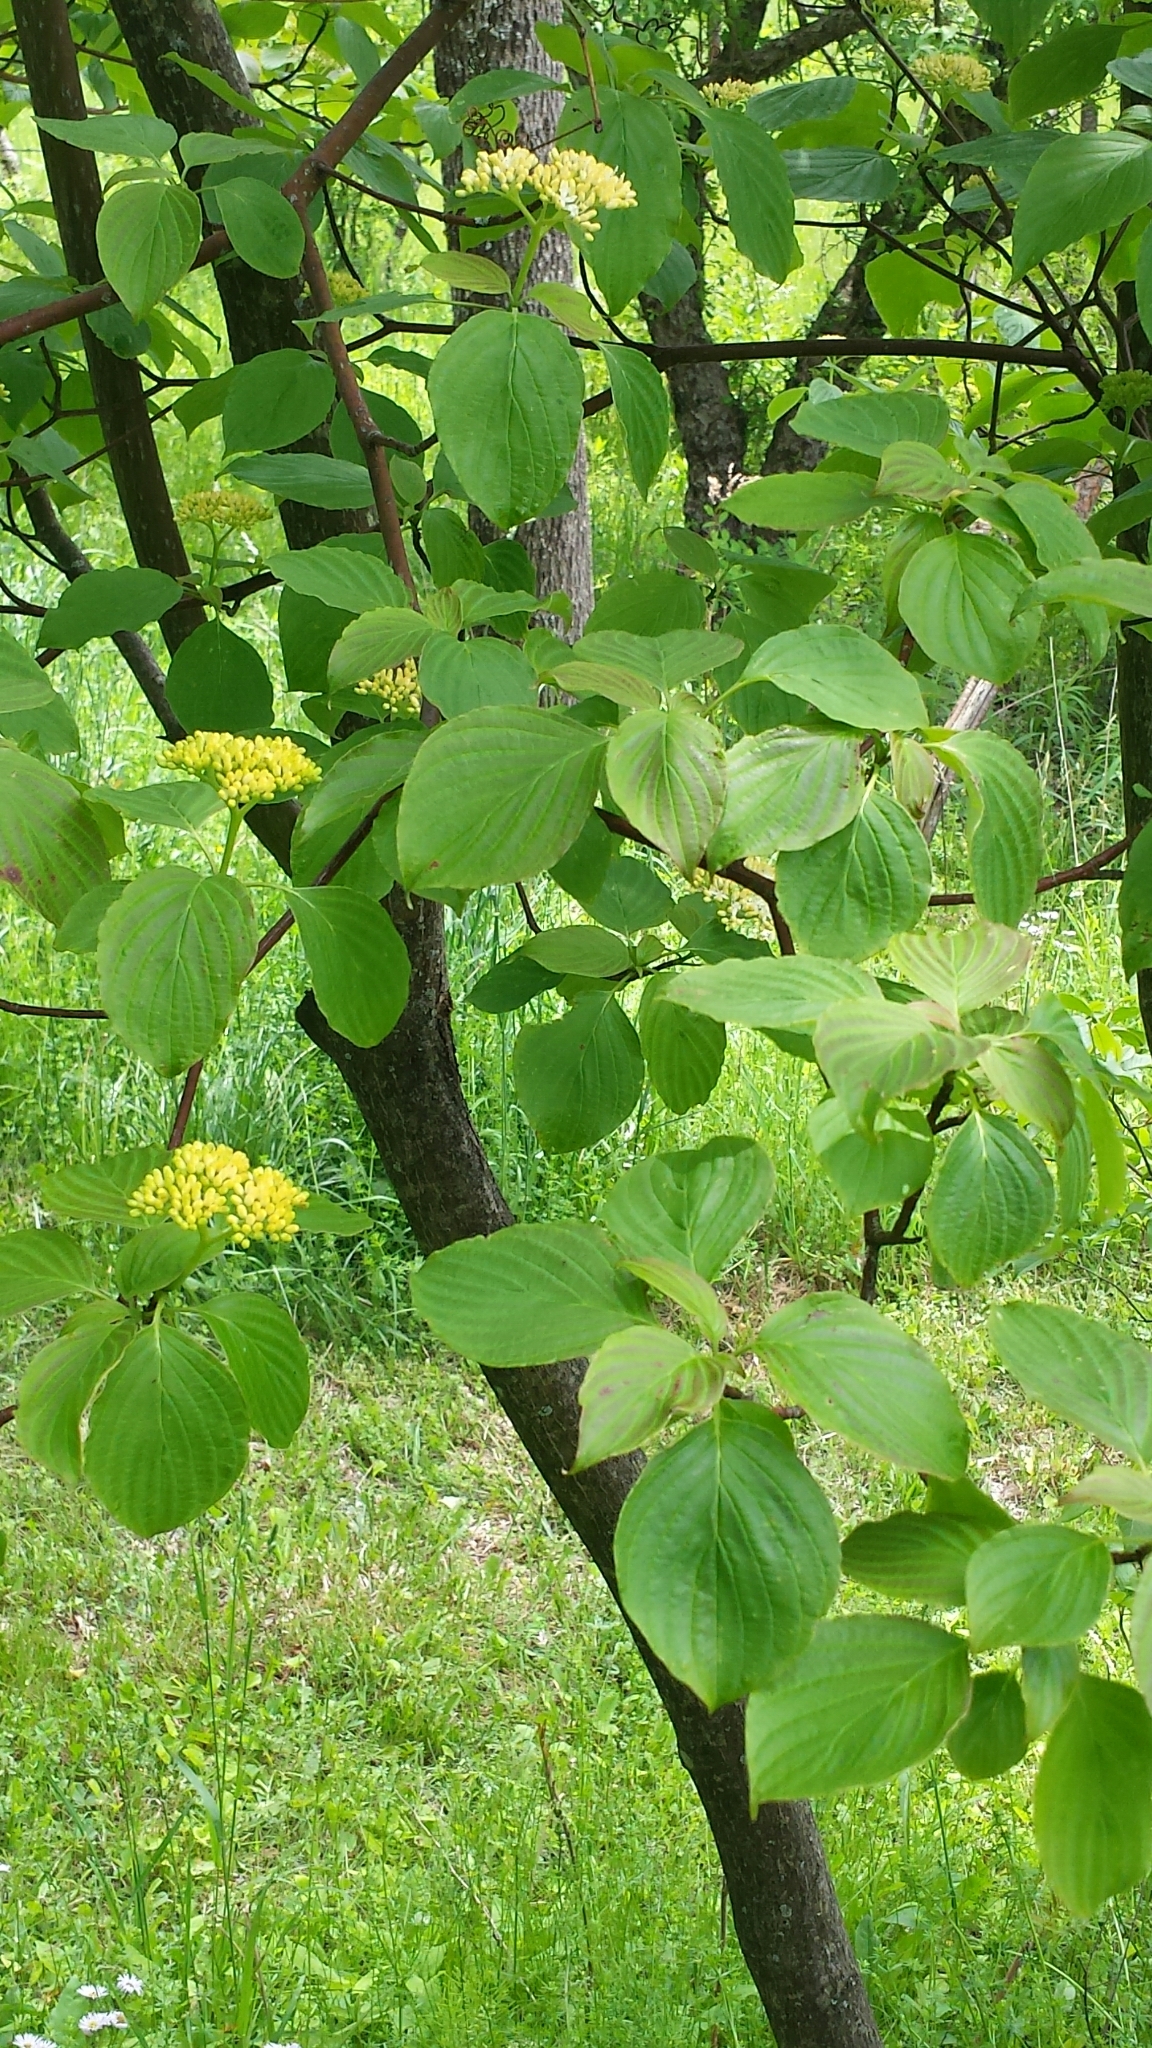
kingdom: Plantae
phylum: Tracheophyta
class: Magnoliopsida
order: Cornales
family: Cornaceae
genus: Cornus
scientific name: Cornus alternifolia
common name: Pagoda dogwood
